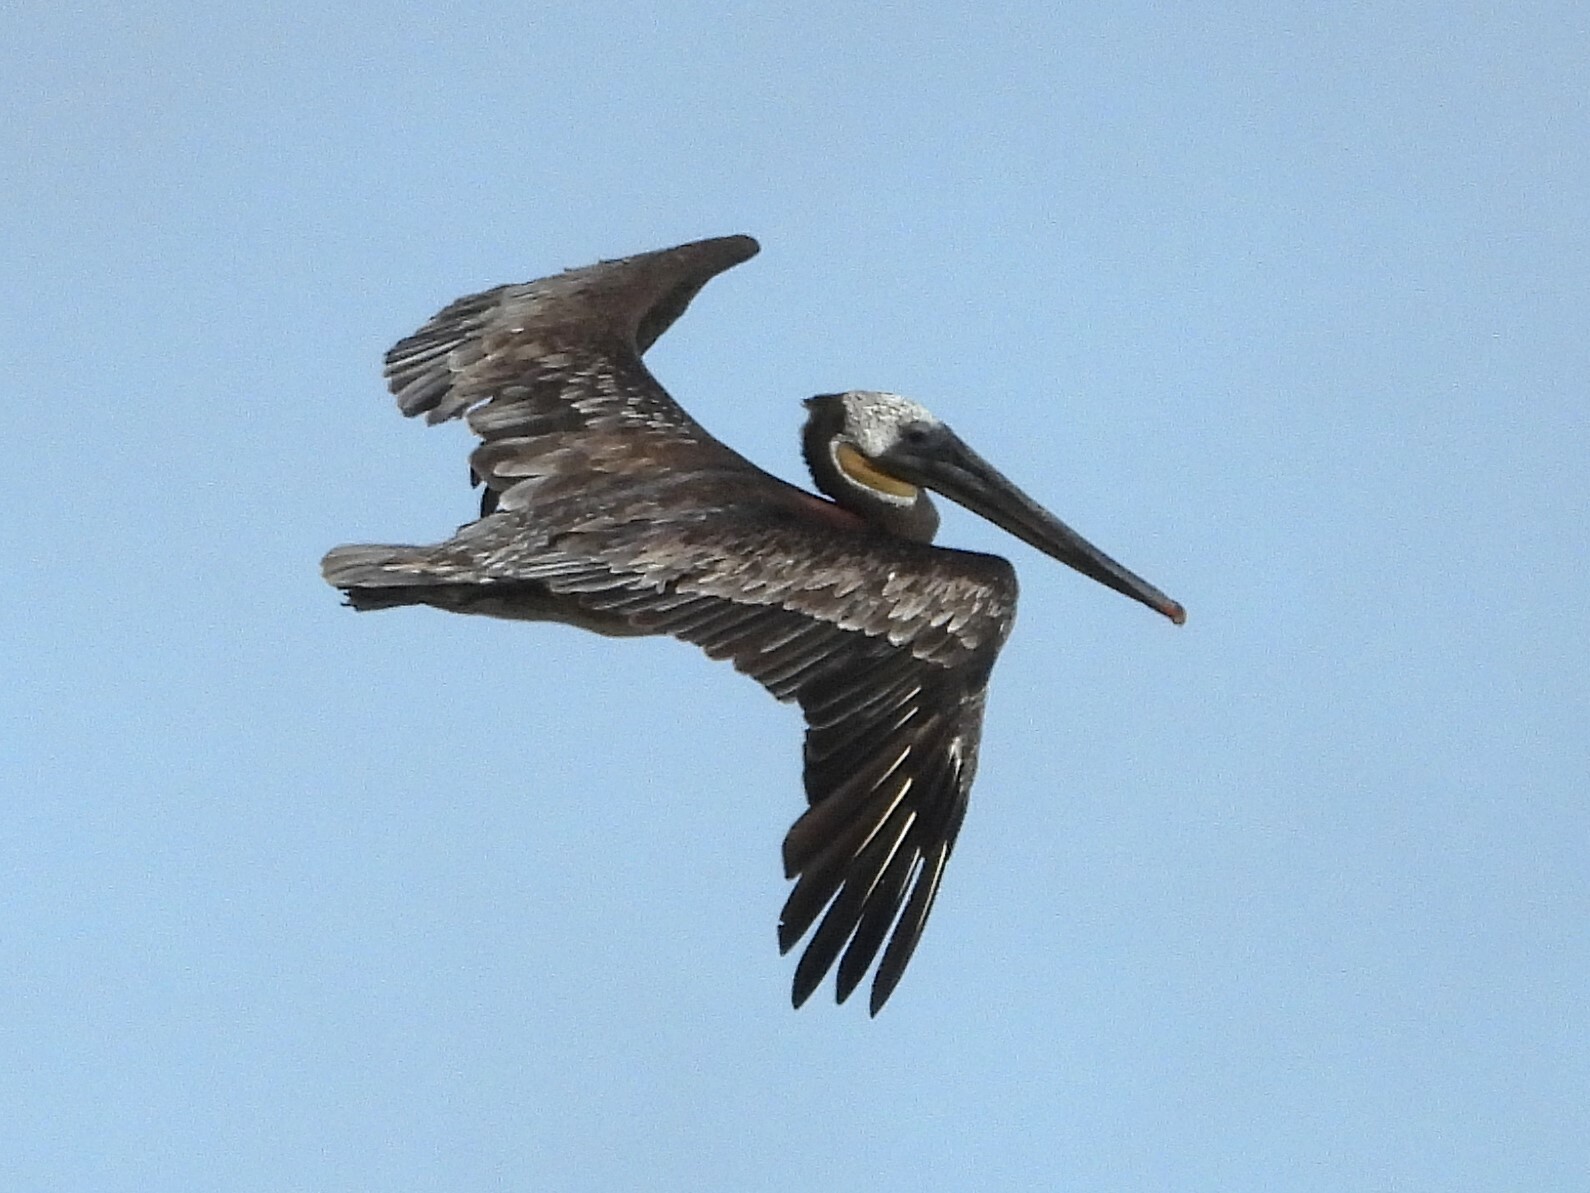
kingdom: Animalia
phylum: Chordata
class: Aves
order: Pelecaniformes
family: Pelecanidae
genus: Pelecanus
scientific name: Pelecanus occidentalis
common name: Brown pelican
